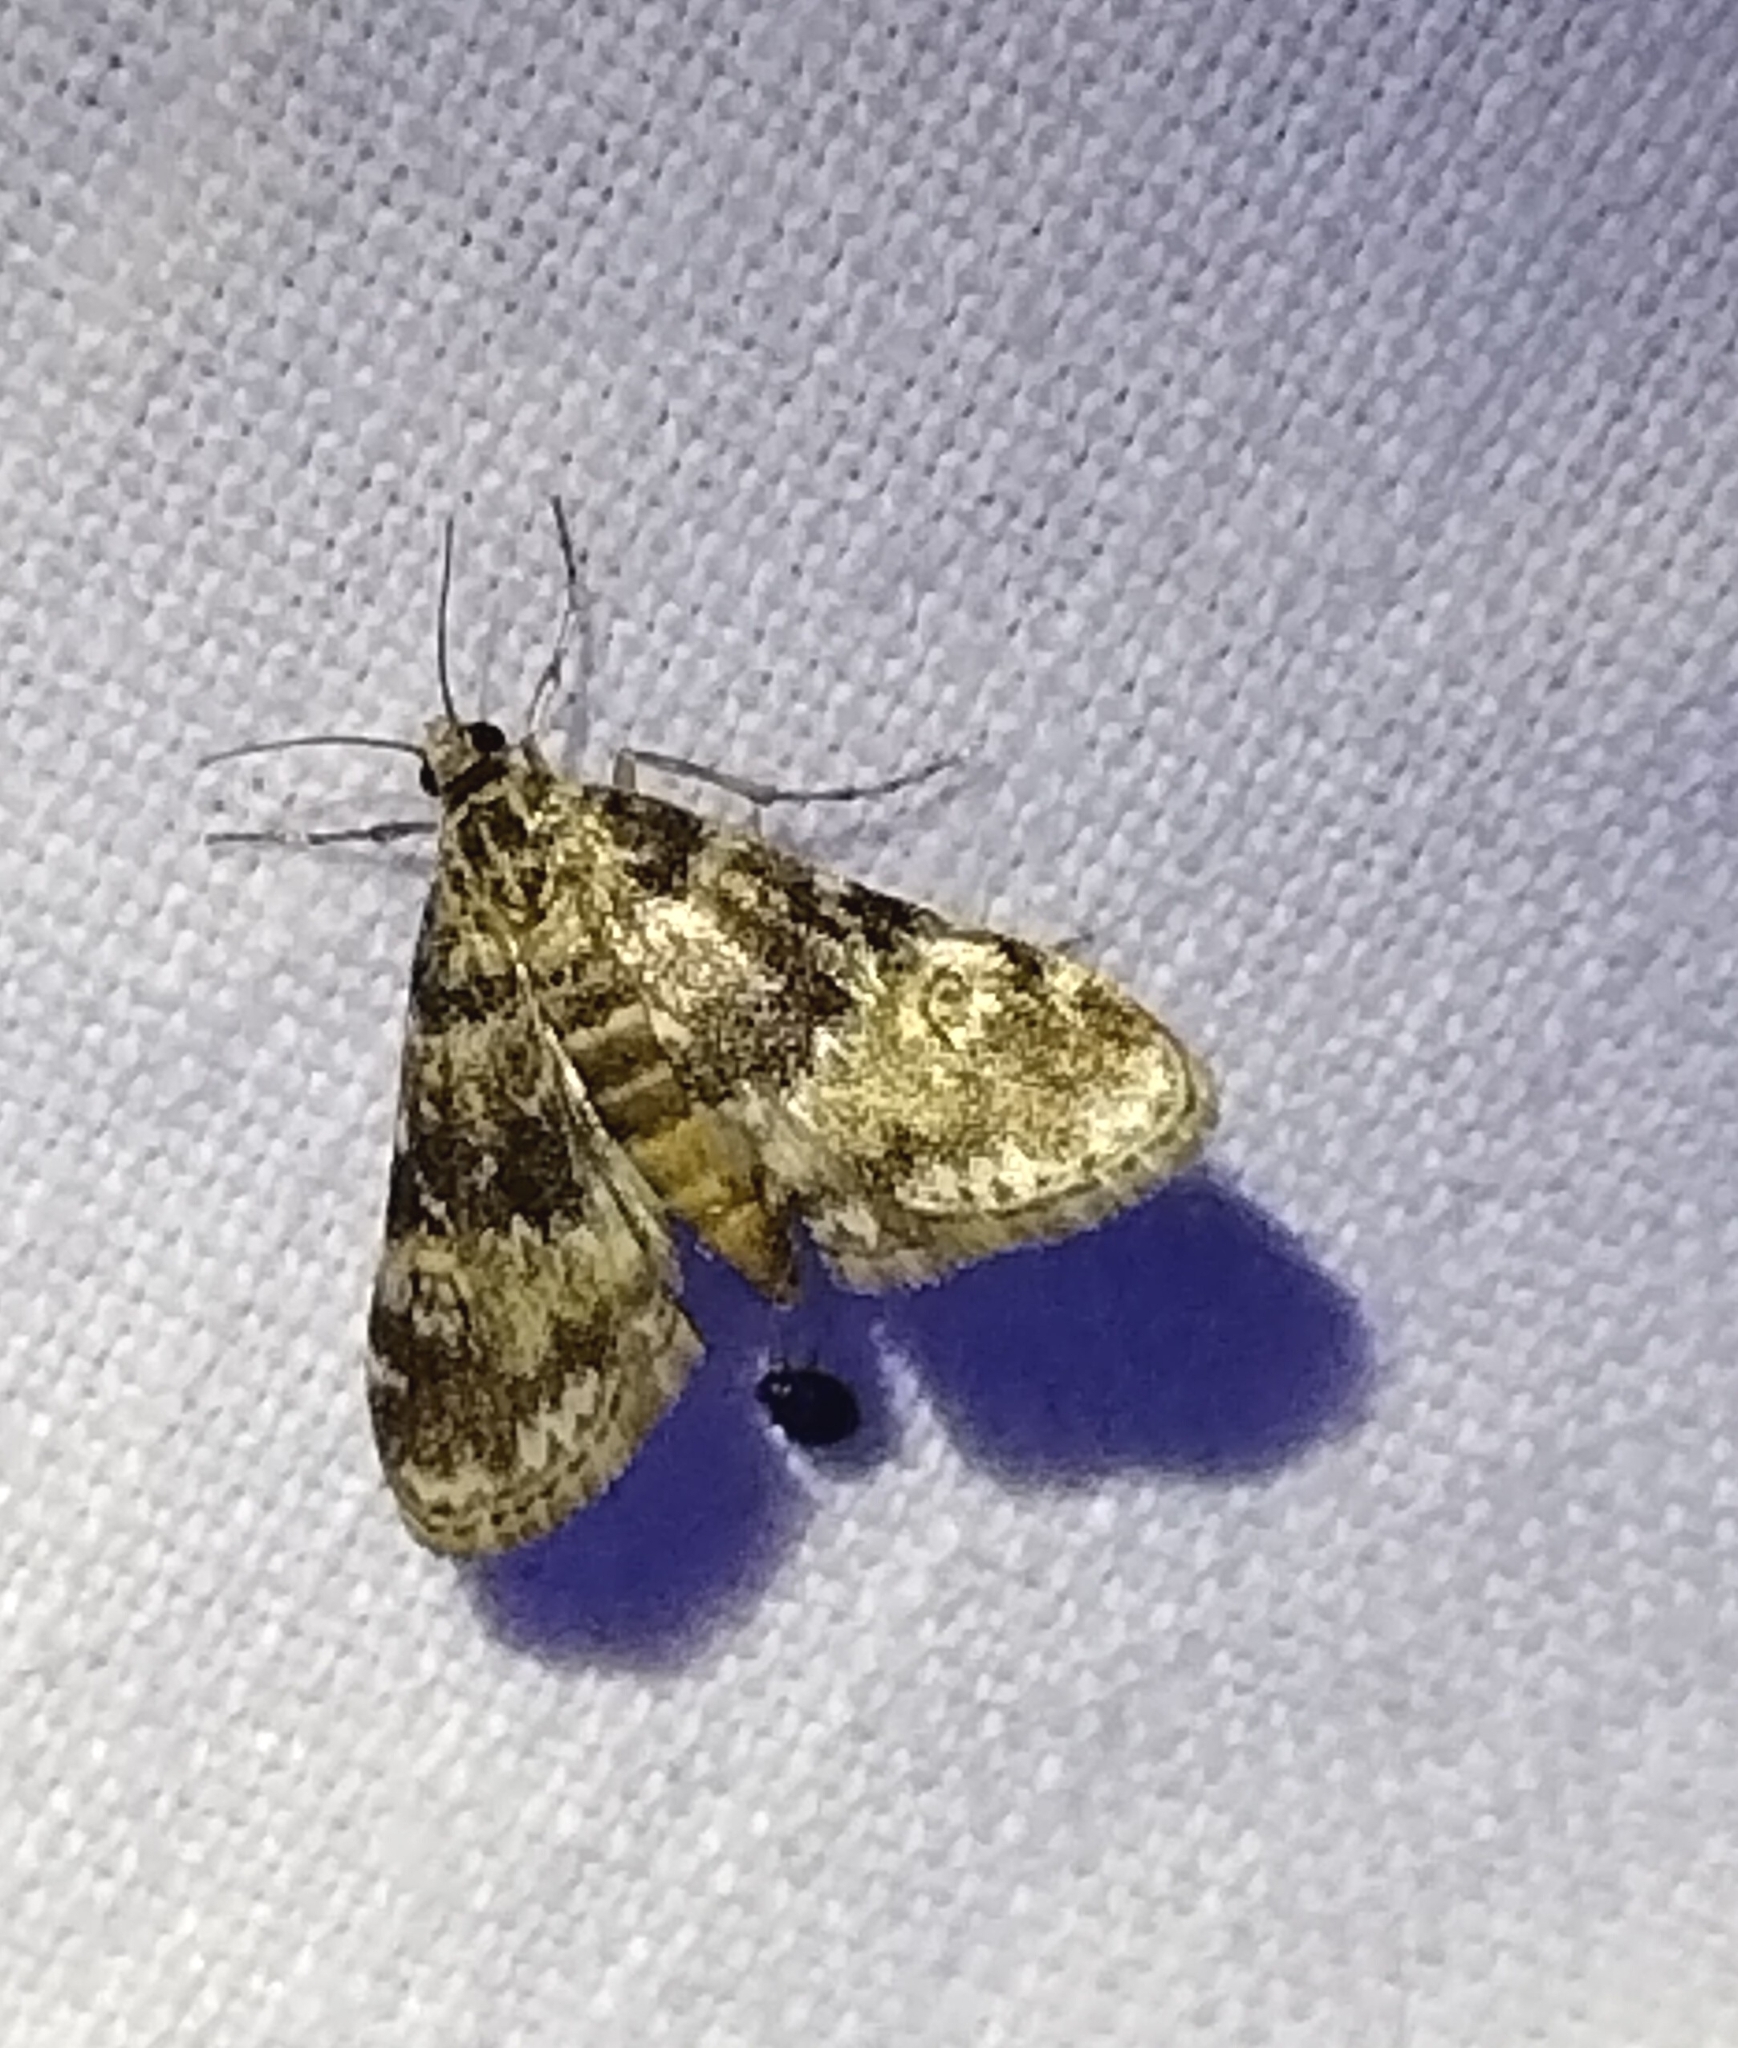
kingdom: Animalia
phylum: Arthropoda
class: Insecta
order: Lepidoptera
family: Crambidae
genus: Elophila
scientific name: Elophila obliteralis
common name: Waterlily leafcutter moth
